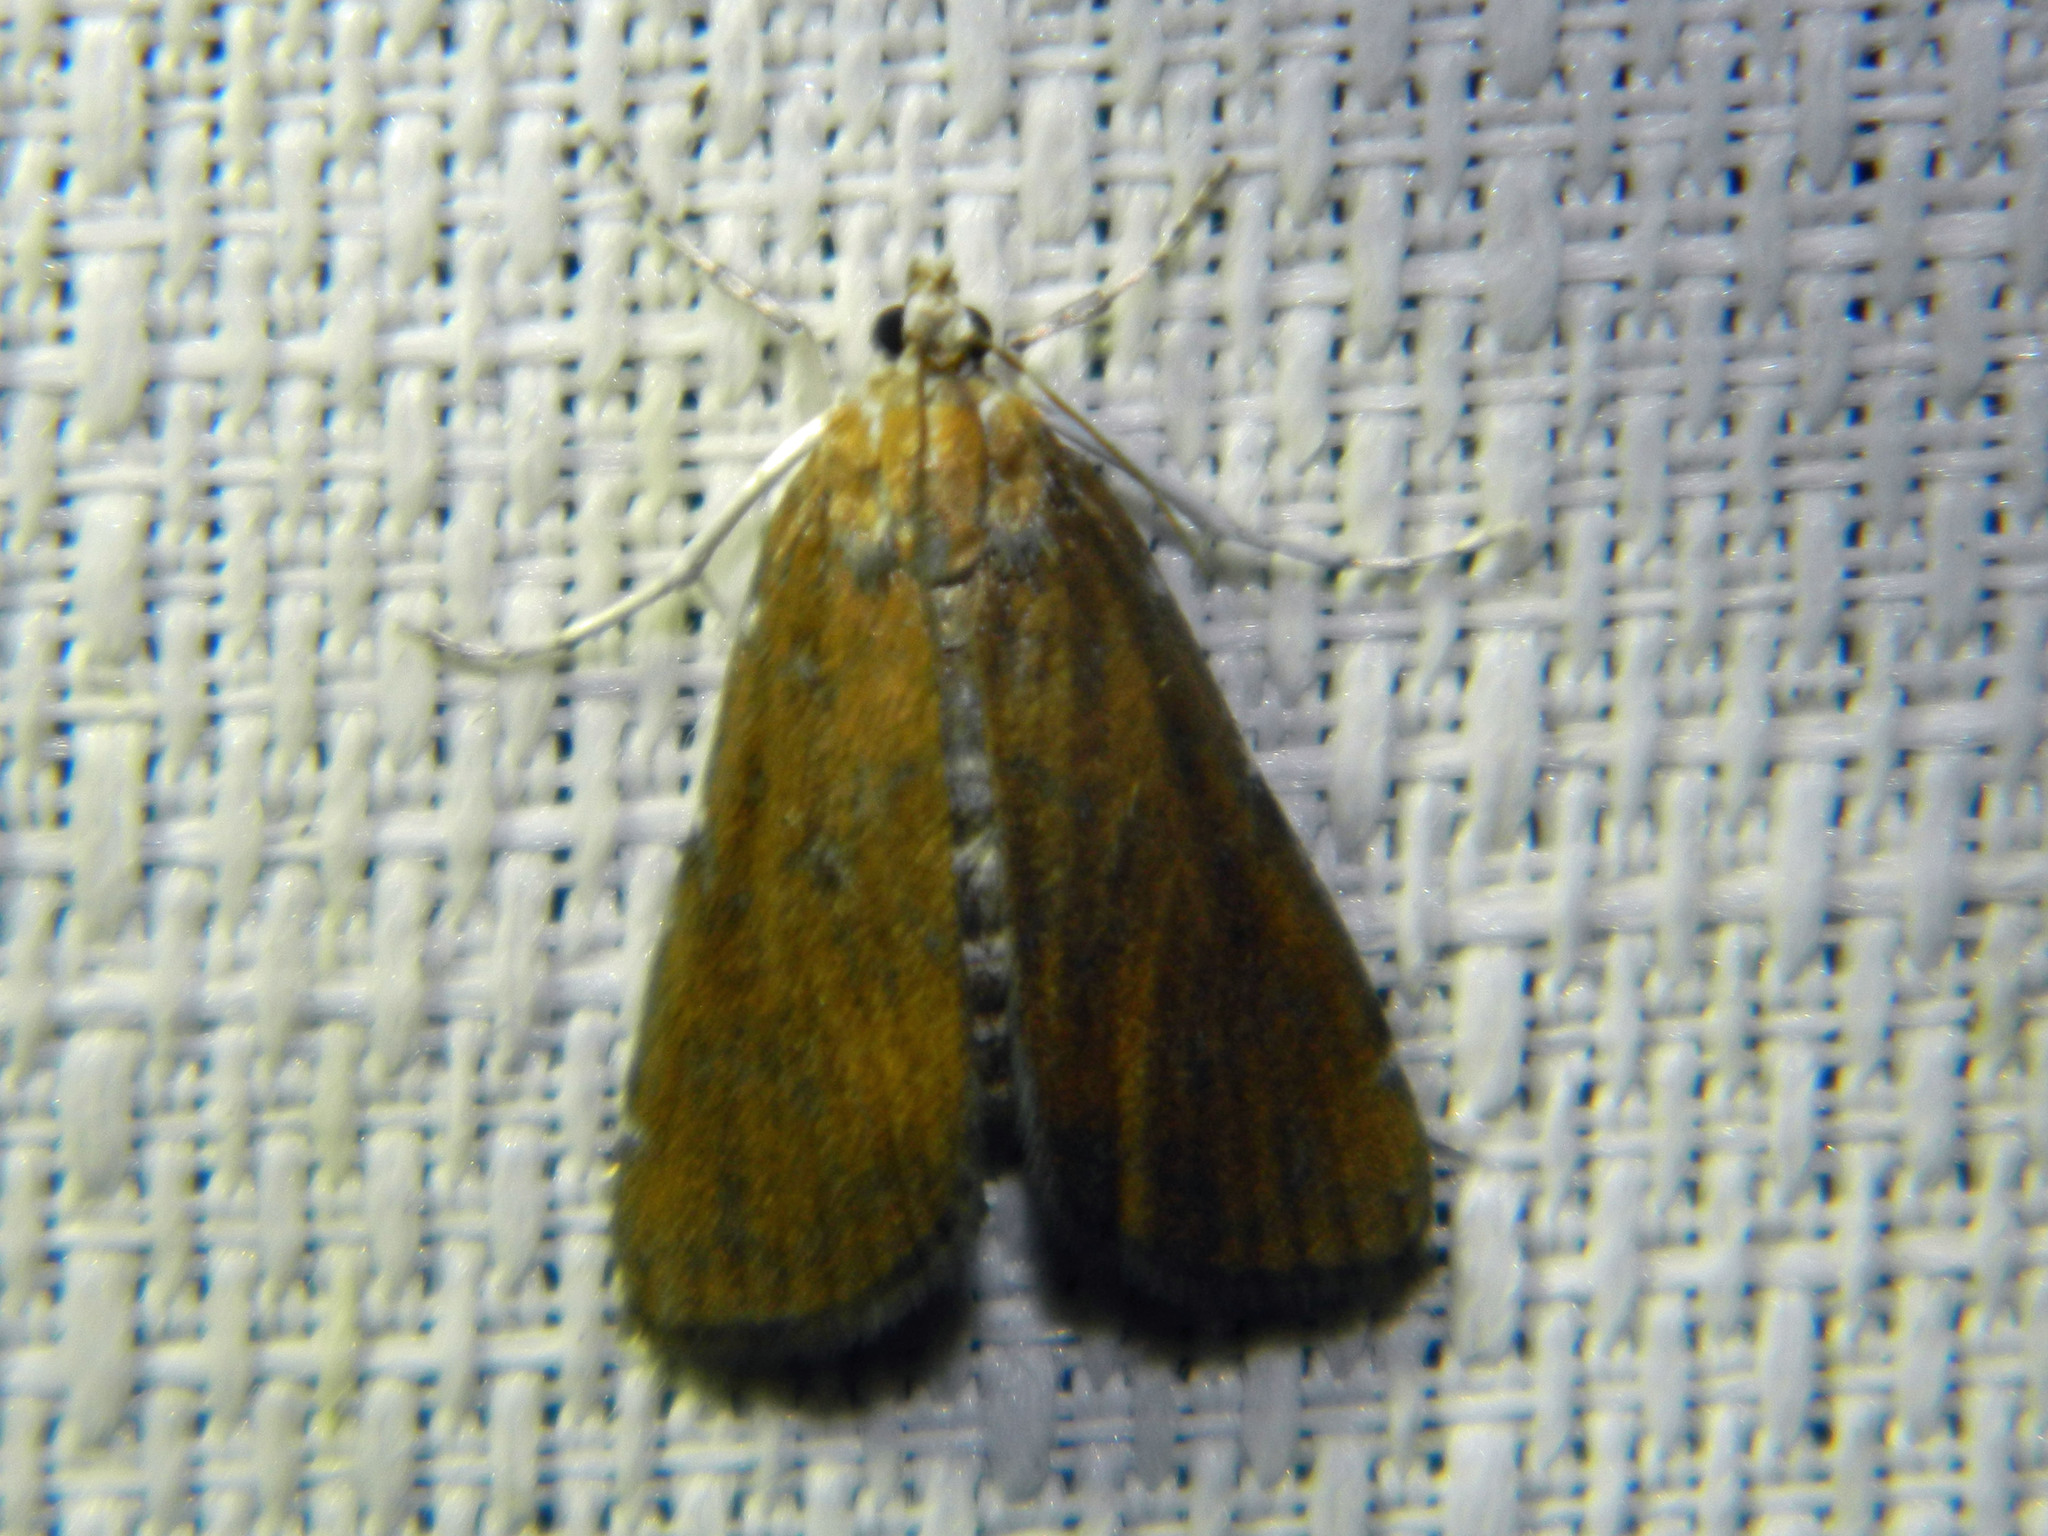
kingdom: Animalia
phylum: Arthropoda
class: Insecta
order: Lepidoptera
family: Crambidae
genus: Elophila
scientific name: Elophila gyralis
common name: Waterlily borer moth
